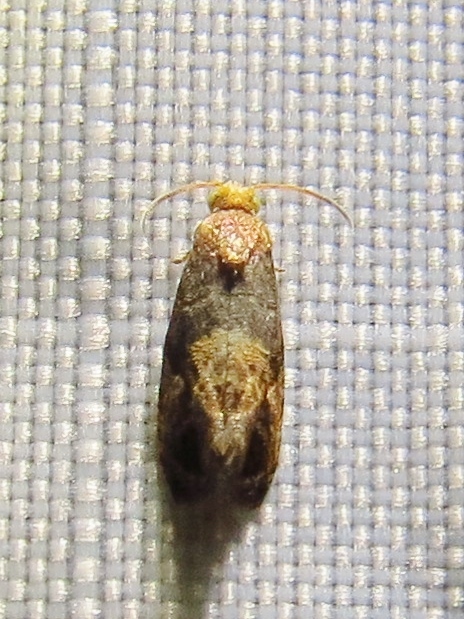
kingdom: Animalia
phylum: Arthropoda
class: Insecta
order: Lepidoptera
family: Tortricidae
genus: Paralobesia
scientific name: Paralobesia viteana
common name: Grape berry moth
